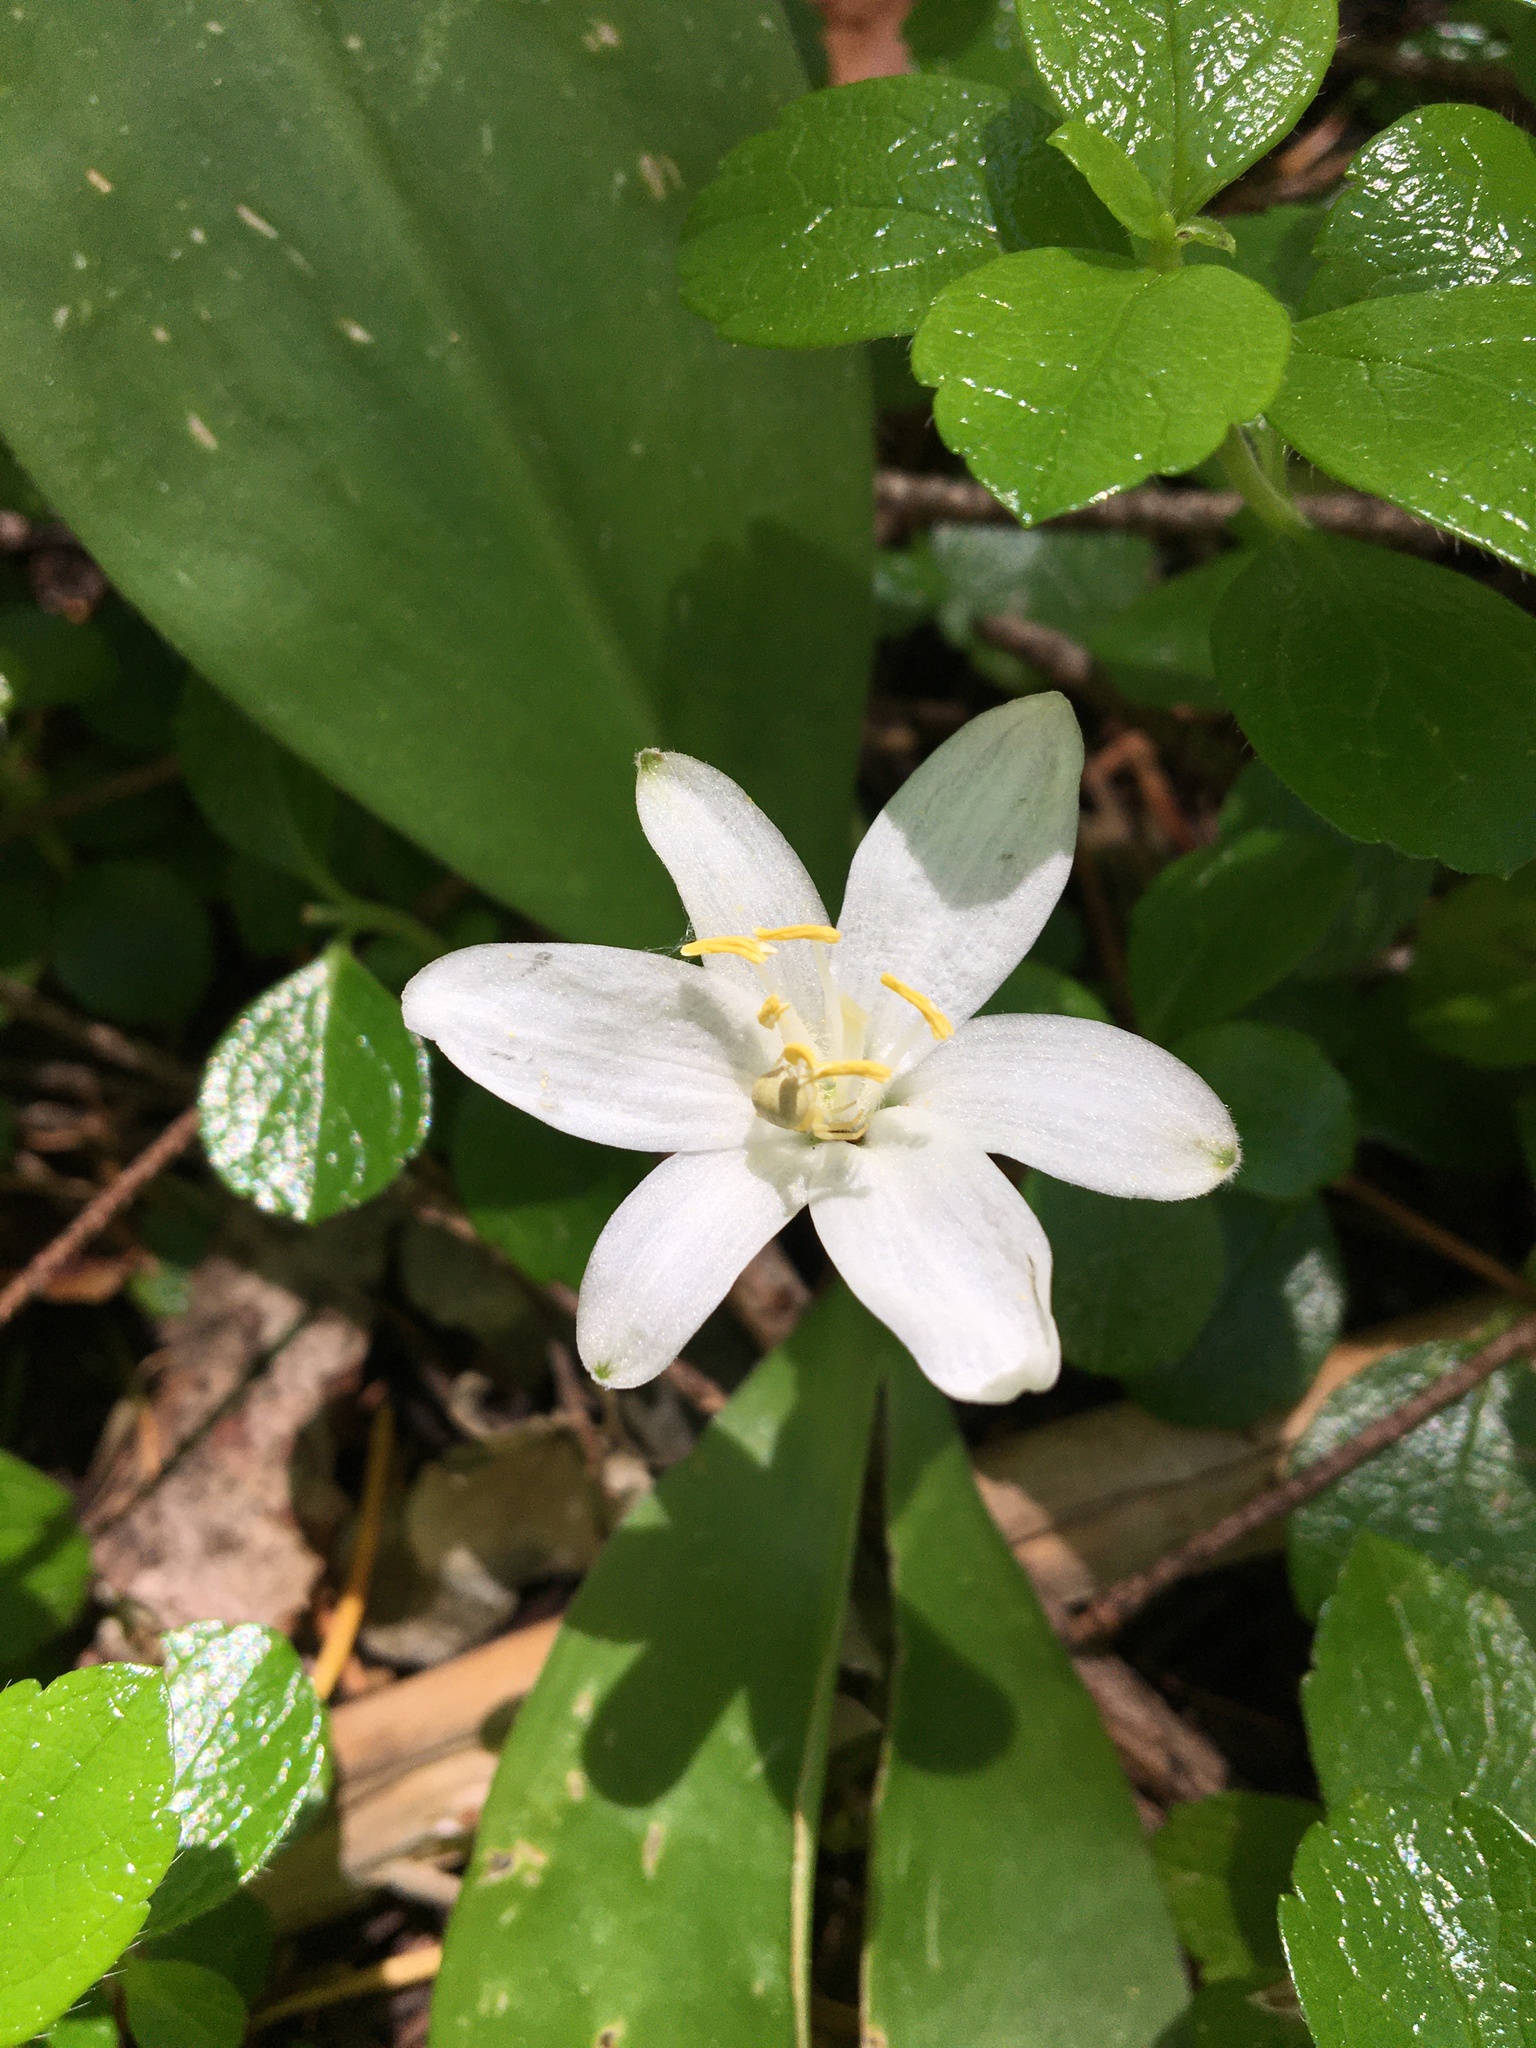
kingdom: Plantae
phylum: Tracheophyta
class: Liliopsida
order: Liliales
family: Liliaceae
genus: Clintonia
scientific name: Clintonia uniflora
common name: Queen's cup
